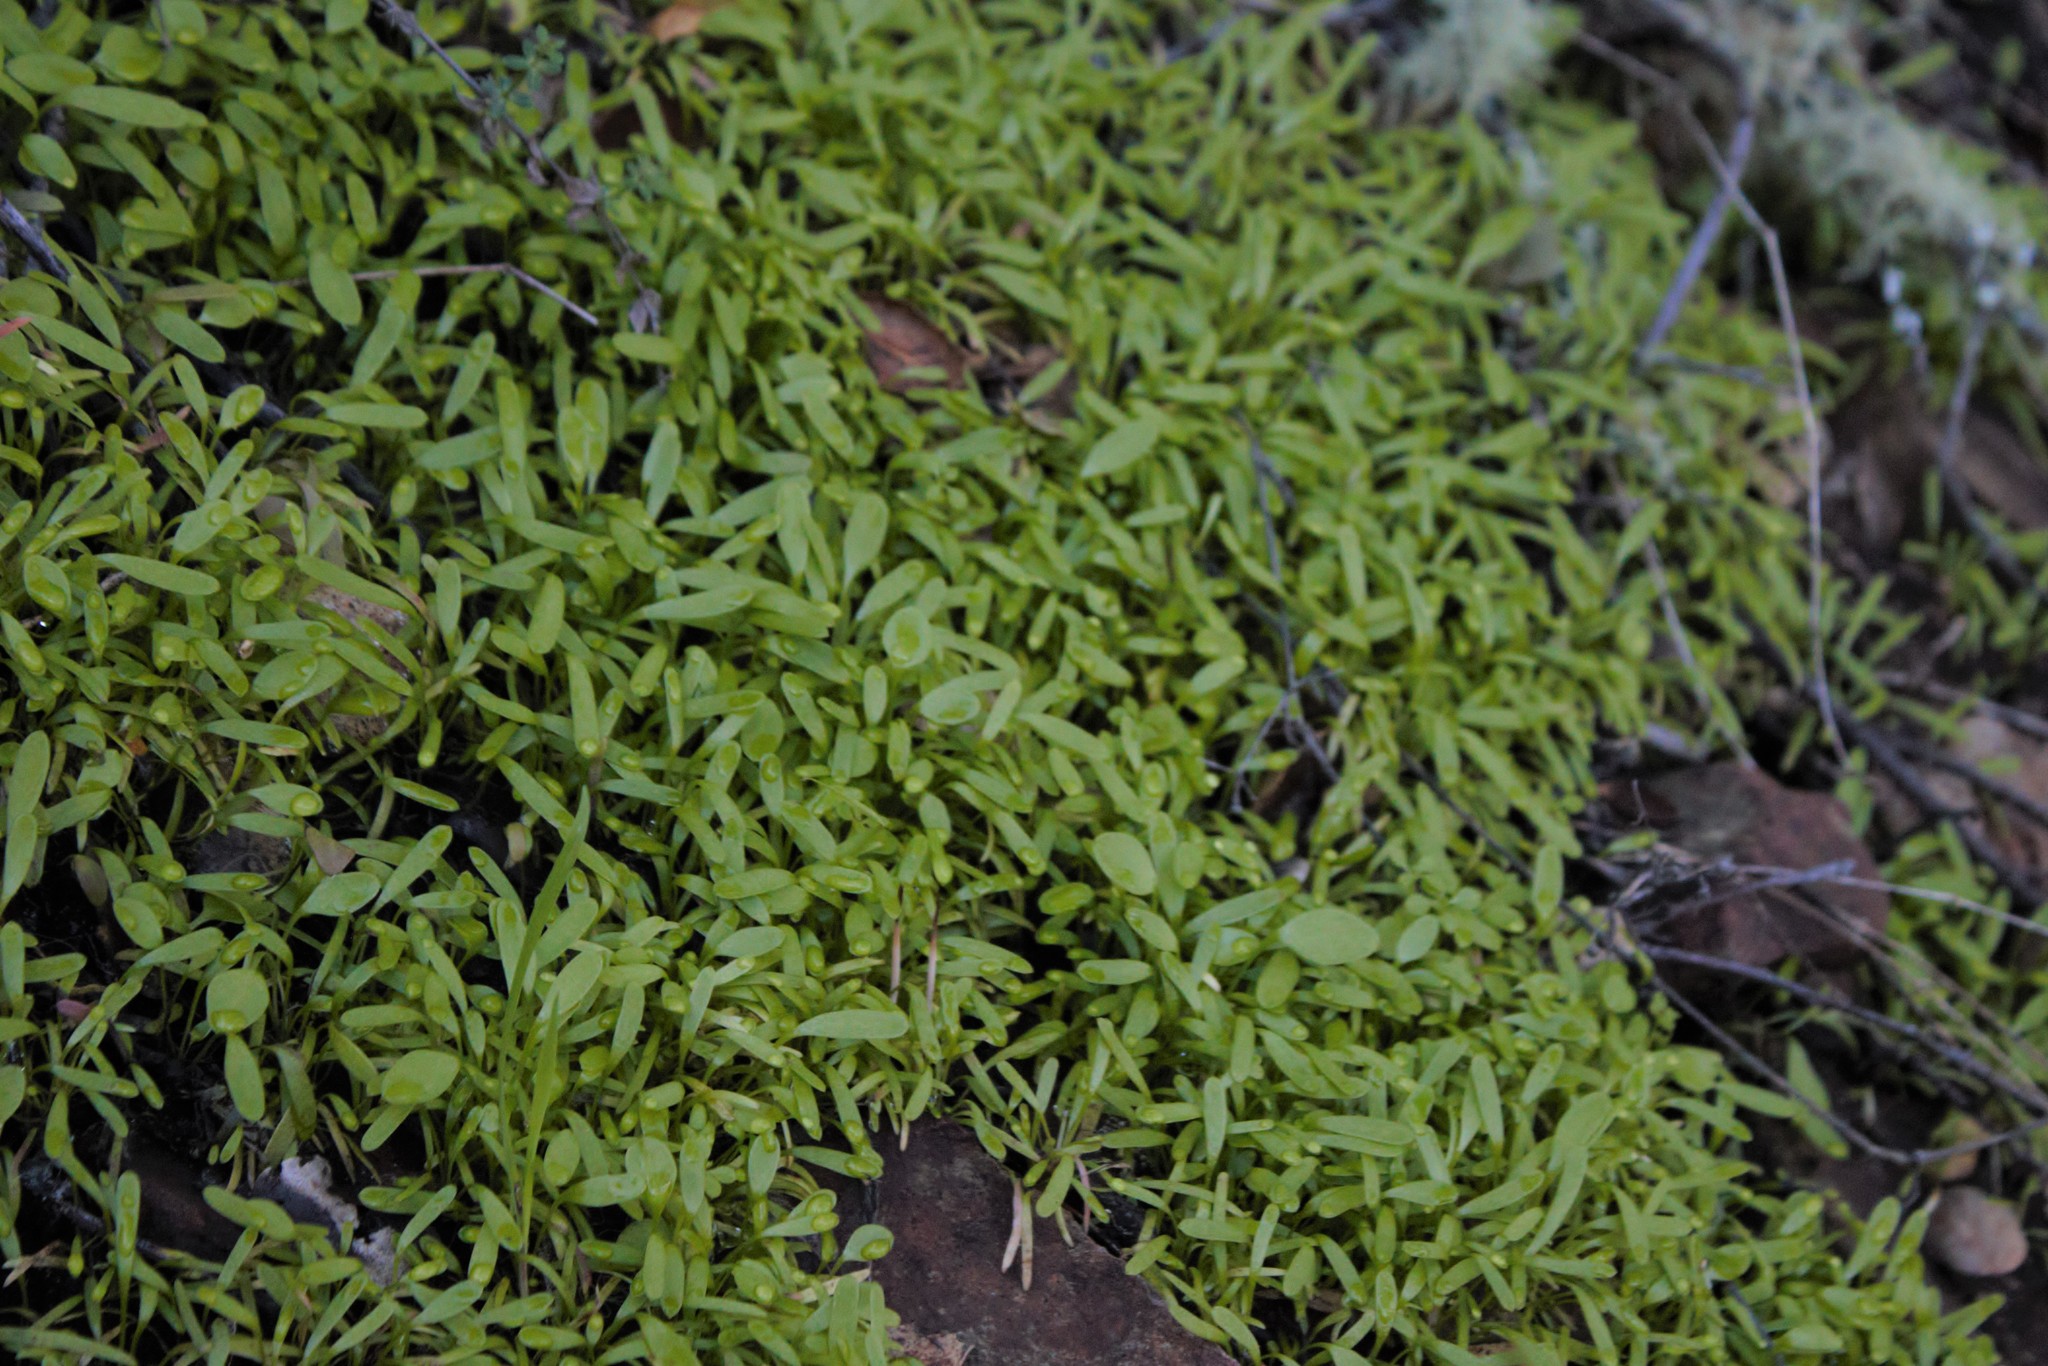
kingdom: Plantae
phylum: Tracheophyta
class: Magnoliopsida
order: Caryophyllales
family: Montiaceae
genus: Claytonia
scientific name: Claytonia perfoliata
